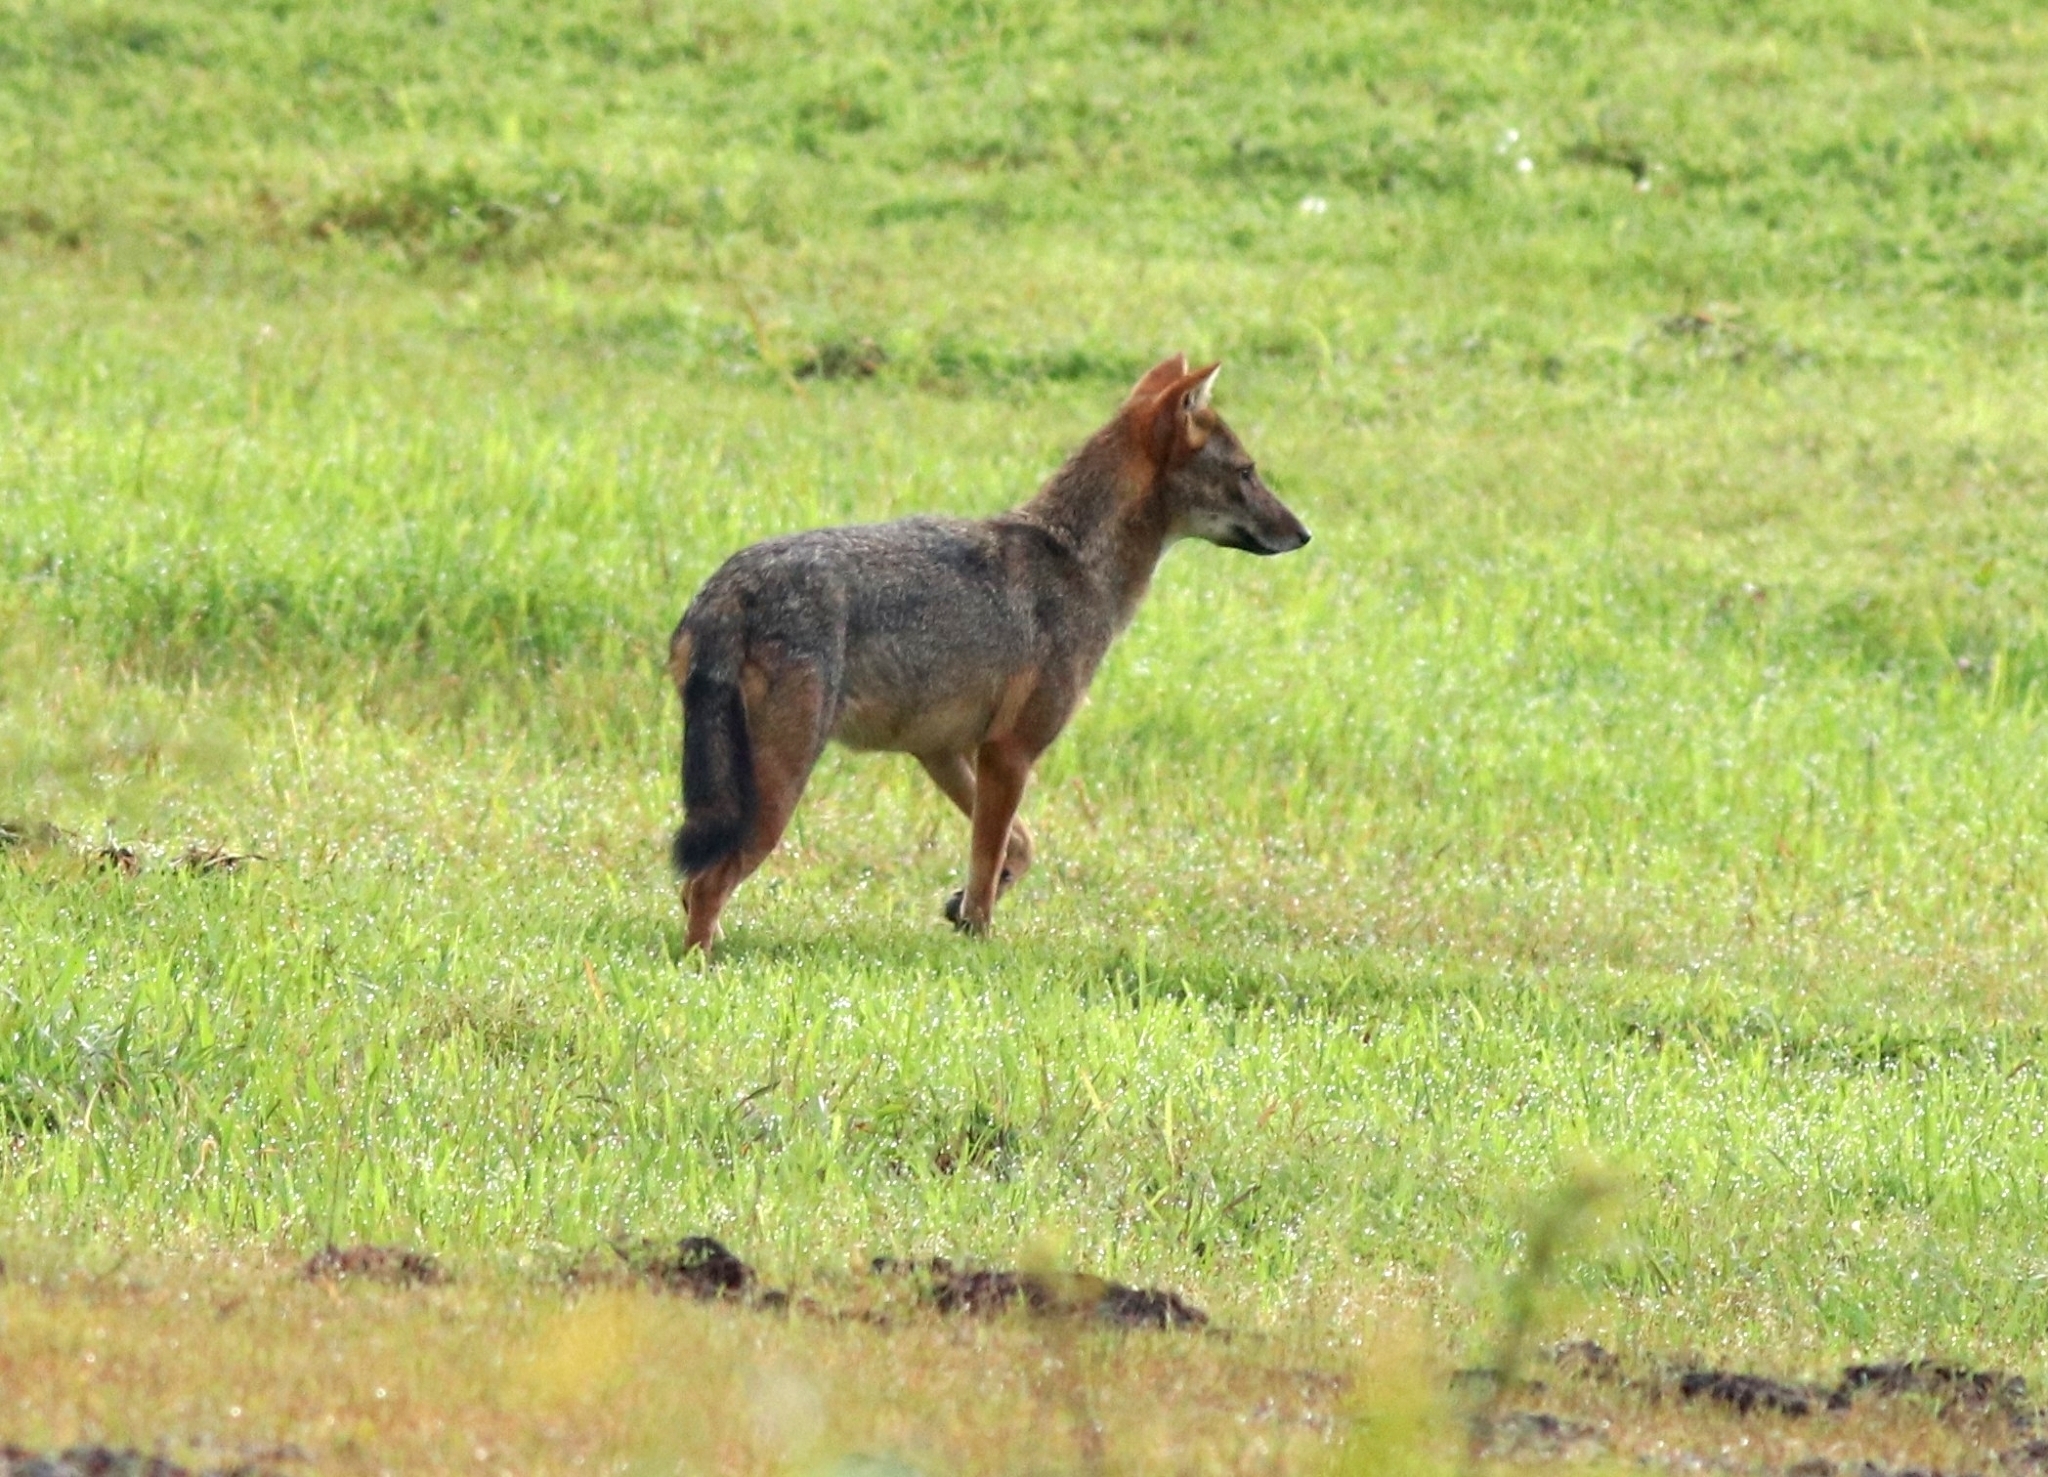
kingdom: Animalia
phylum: Chordata
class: Mammalia
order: Carnivora
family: Canidae
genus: Canis
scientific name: Canis aureus
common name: Golden jackal
